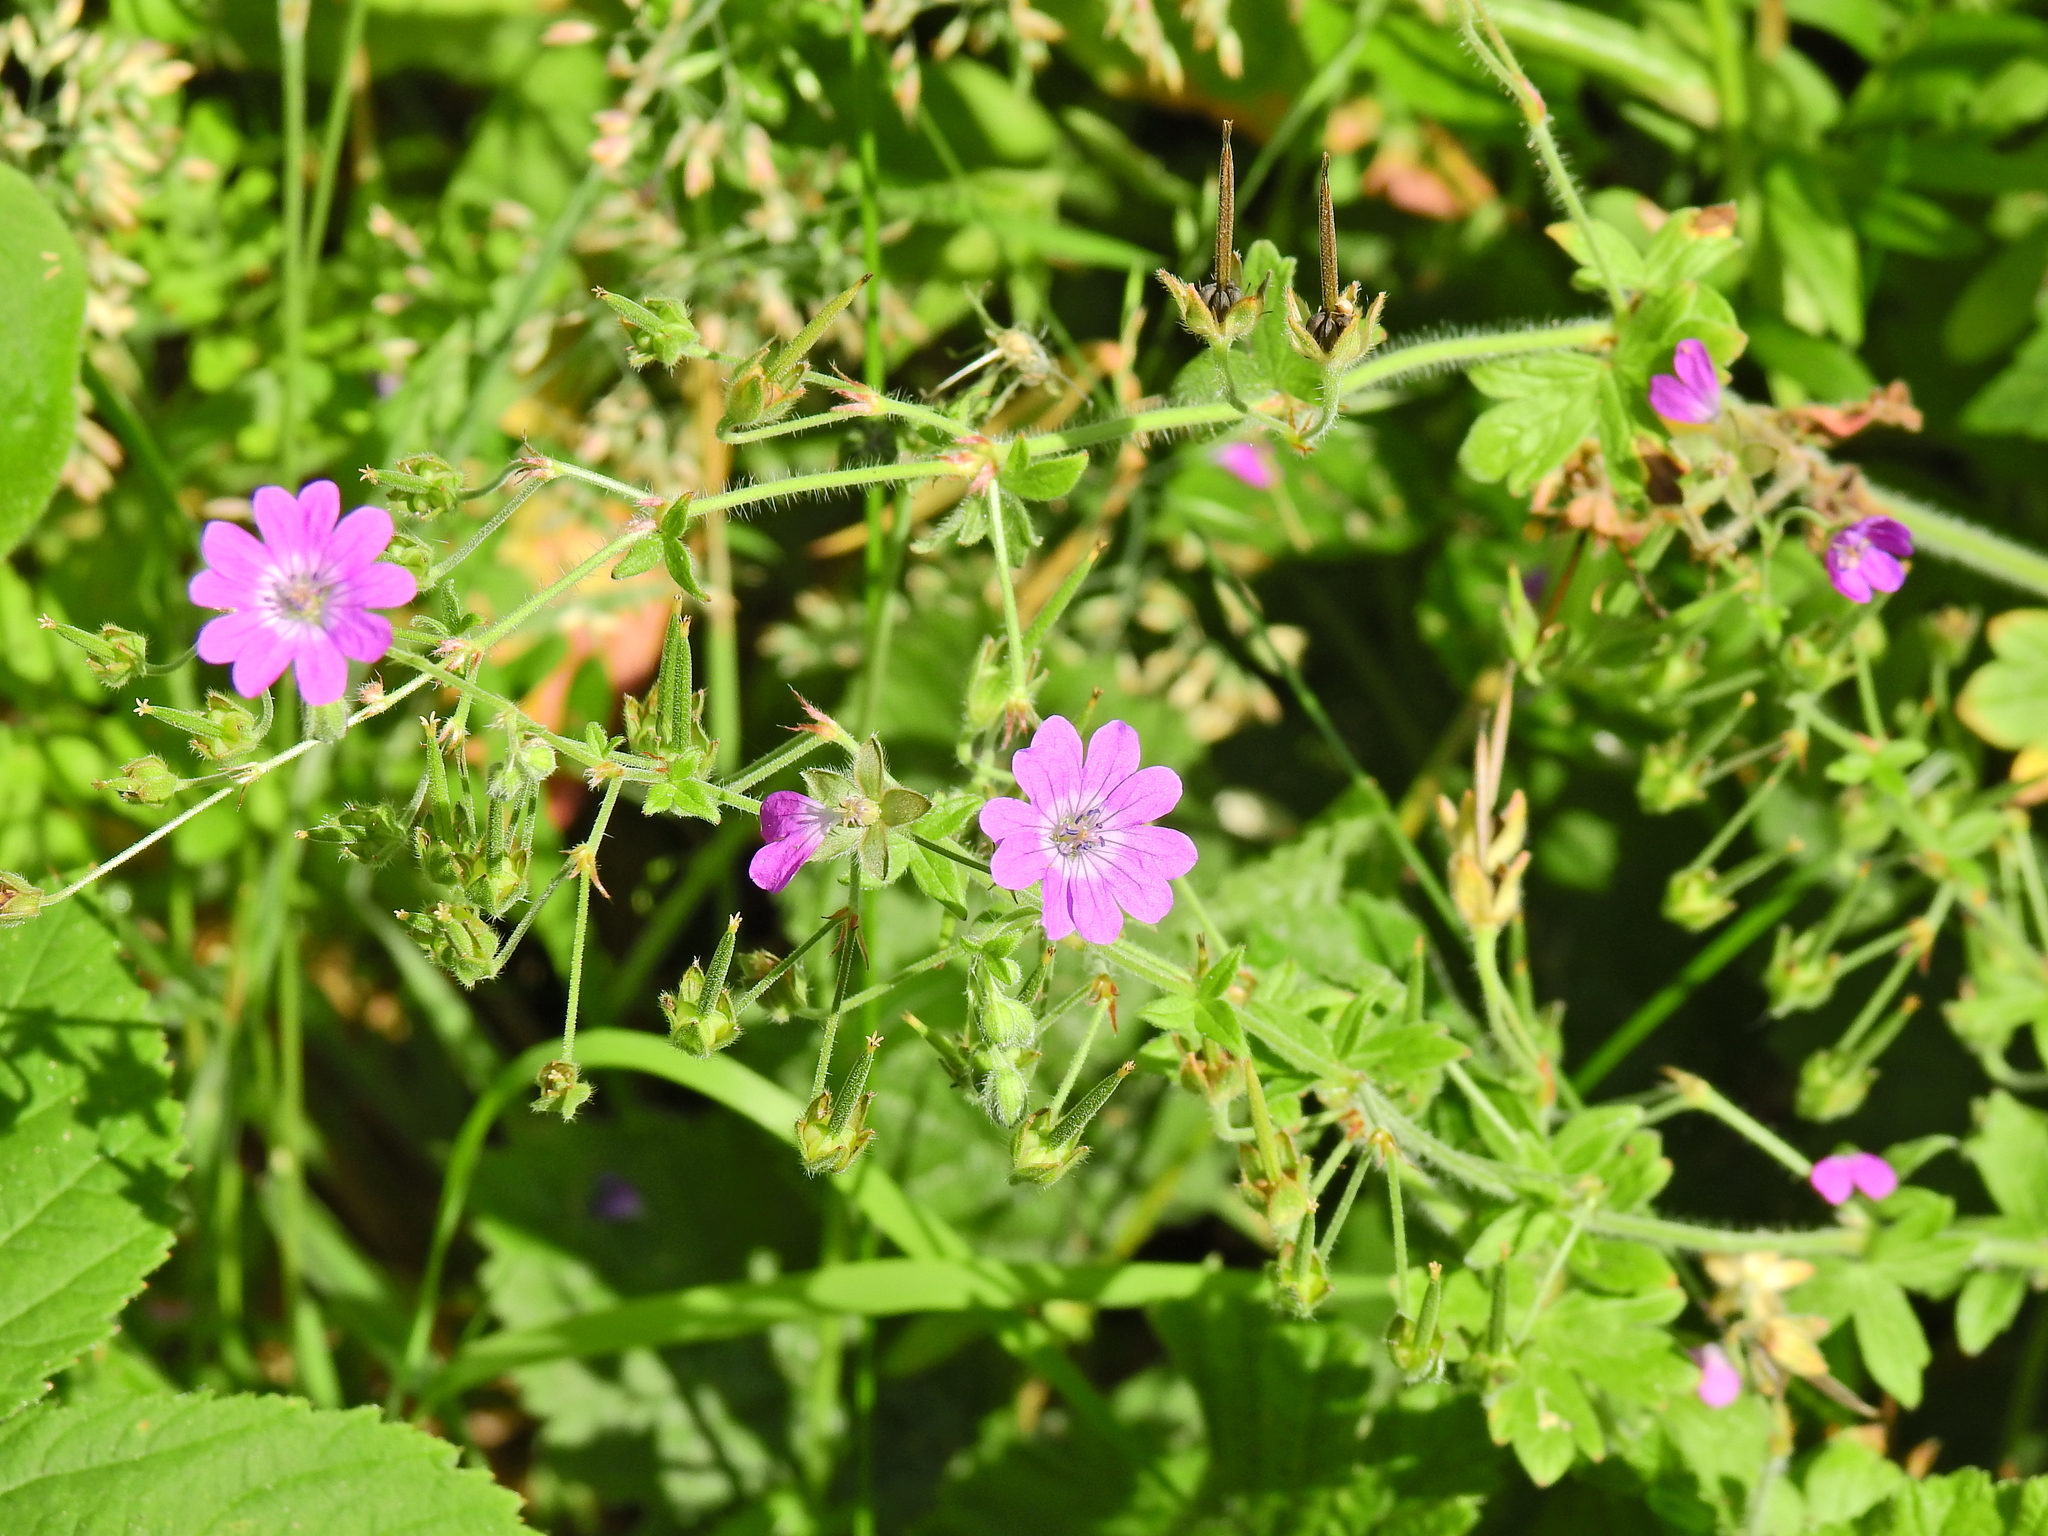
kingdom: Plantae
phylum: Tracheophyta
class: Magnoliopsida
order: Geraniales
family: Geraniaceae
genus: Geranium
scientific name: Geranium pyrenaicum
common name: Hedgerow crane's-bill
